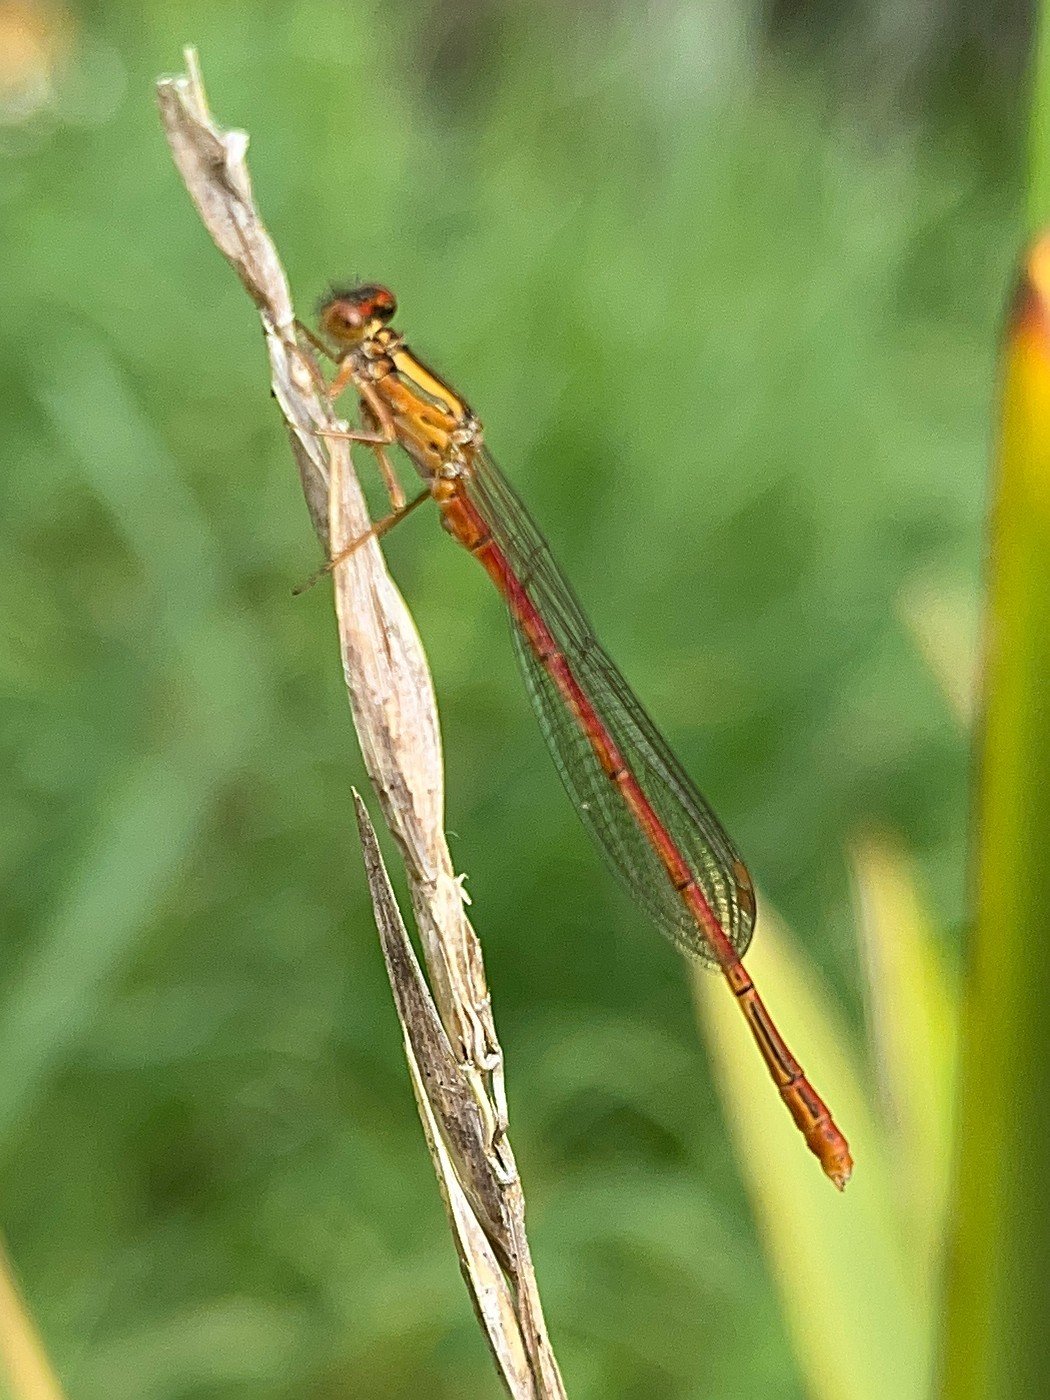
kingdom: Animalia
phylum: Arthropoda
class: Insecta
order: Odonata
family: Coenagrionidae
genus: Xanthocnemis
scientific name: Xanthocnemis zealandica
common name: Common redcoat damselfly
